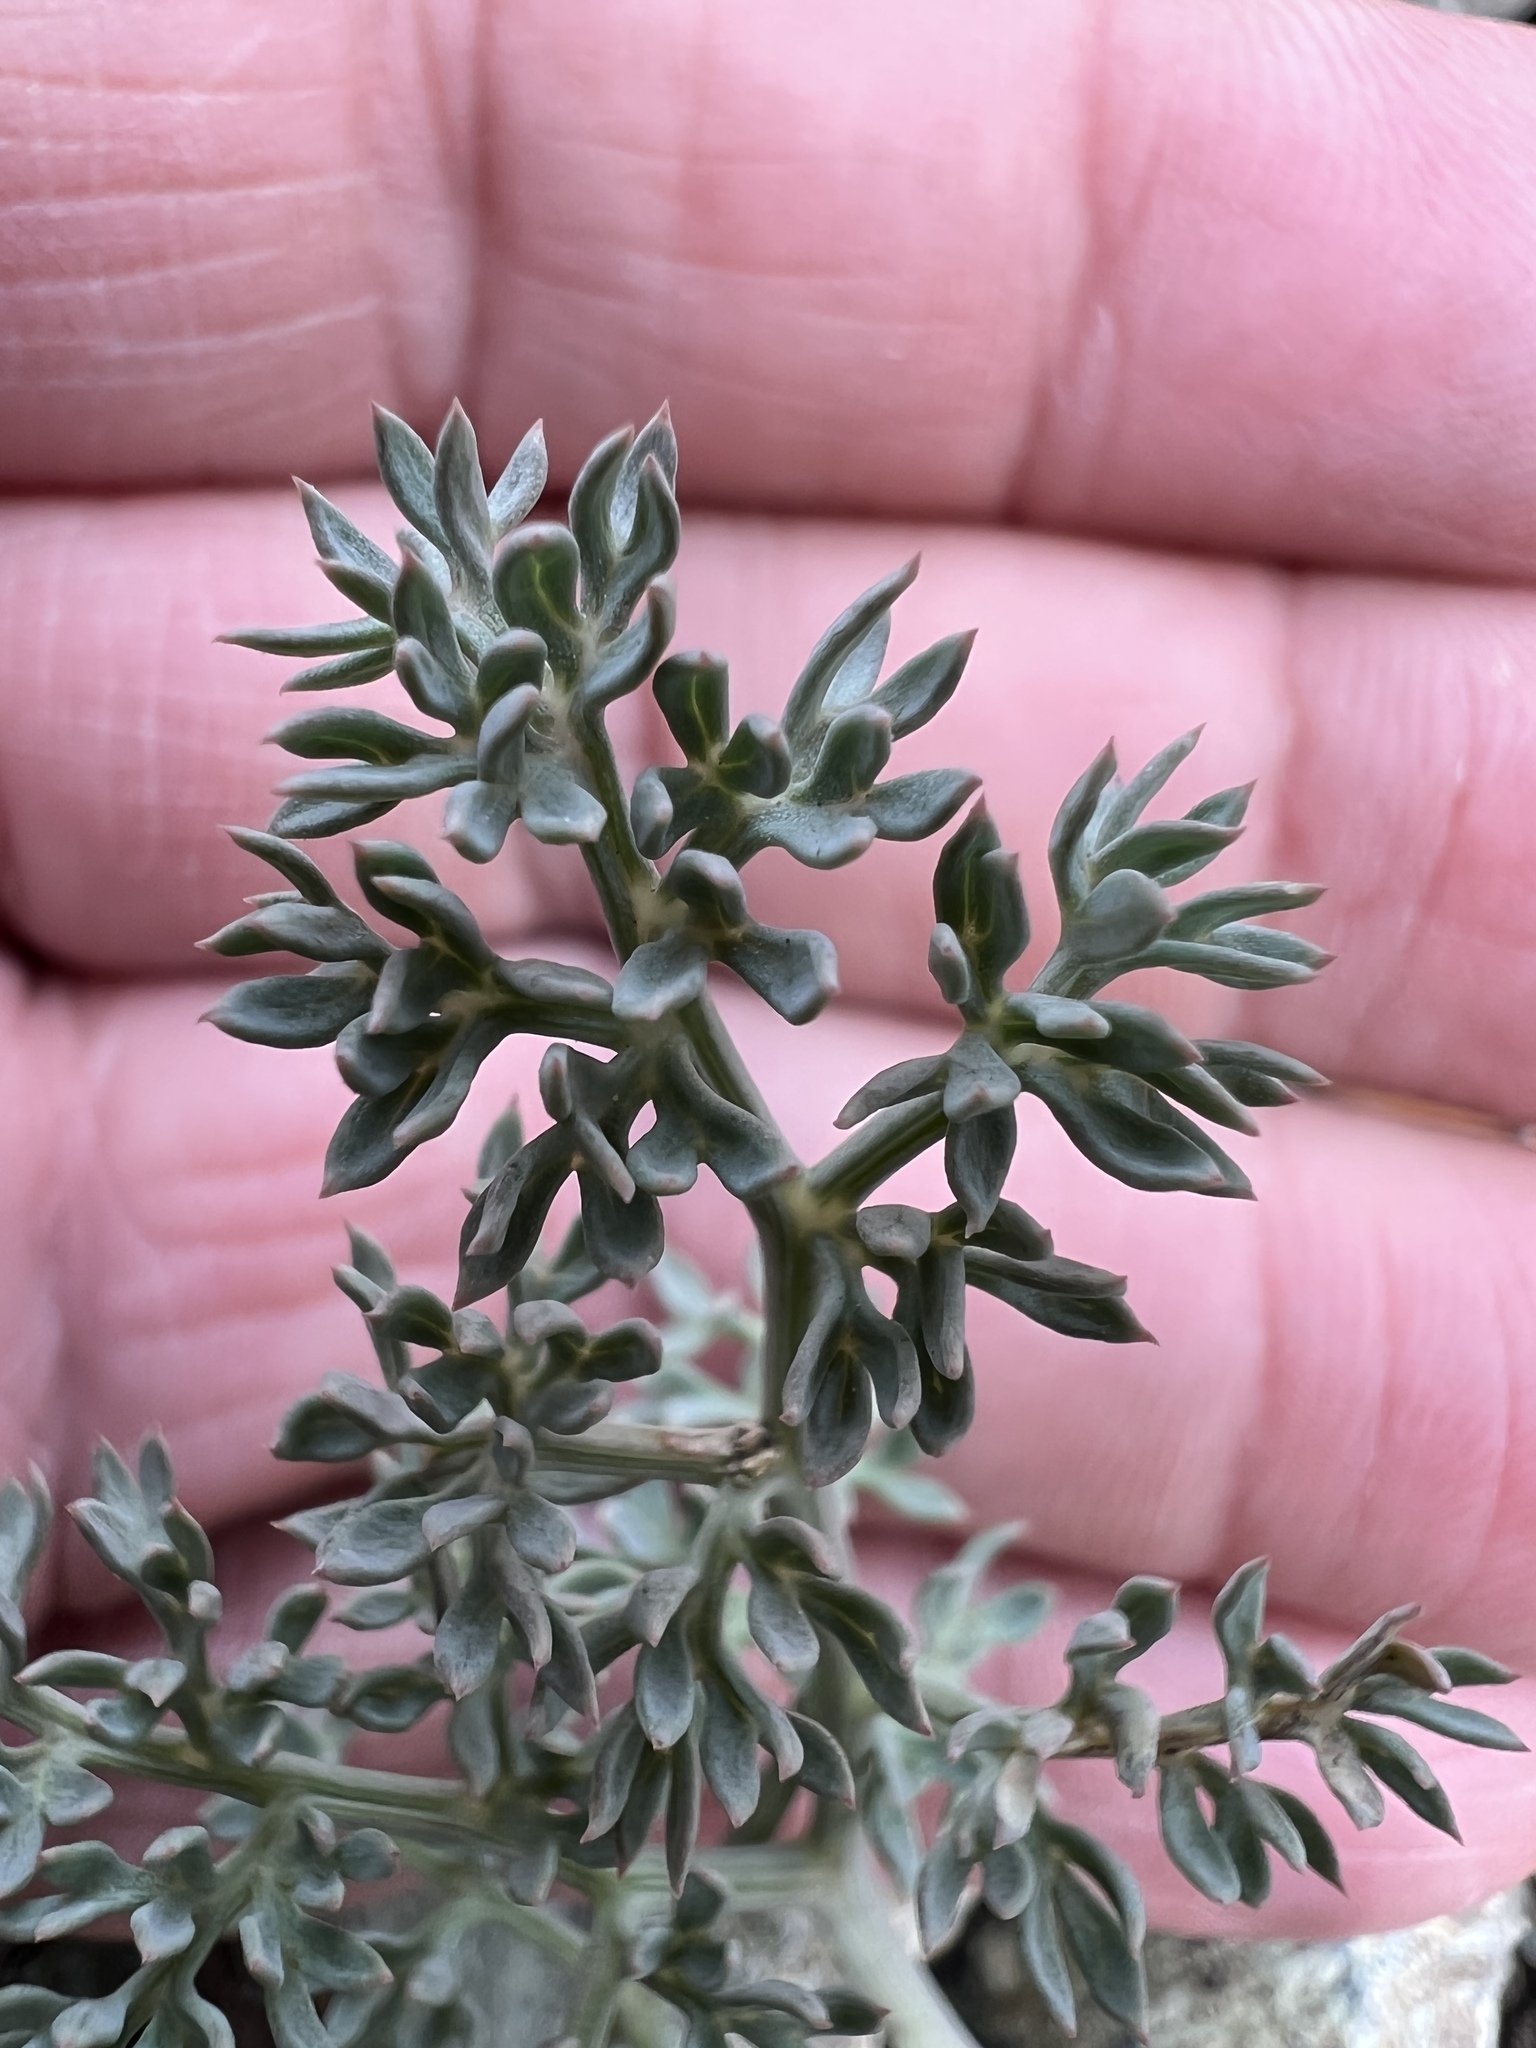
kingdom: Plantae
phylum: Tracheophyta
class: Magnoliopsida
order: Apiales
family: Apiaceae
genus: Lomatium
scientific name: Lomatium cuspidatum
